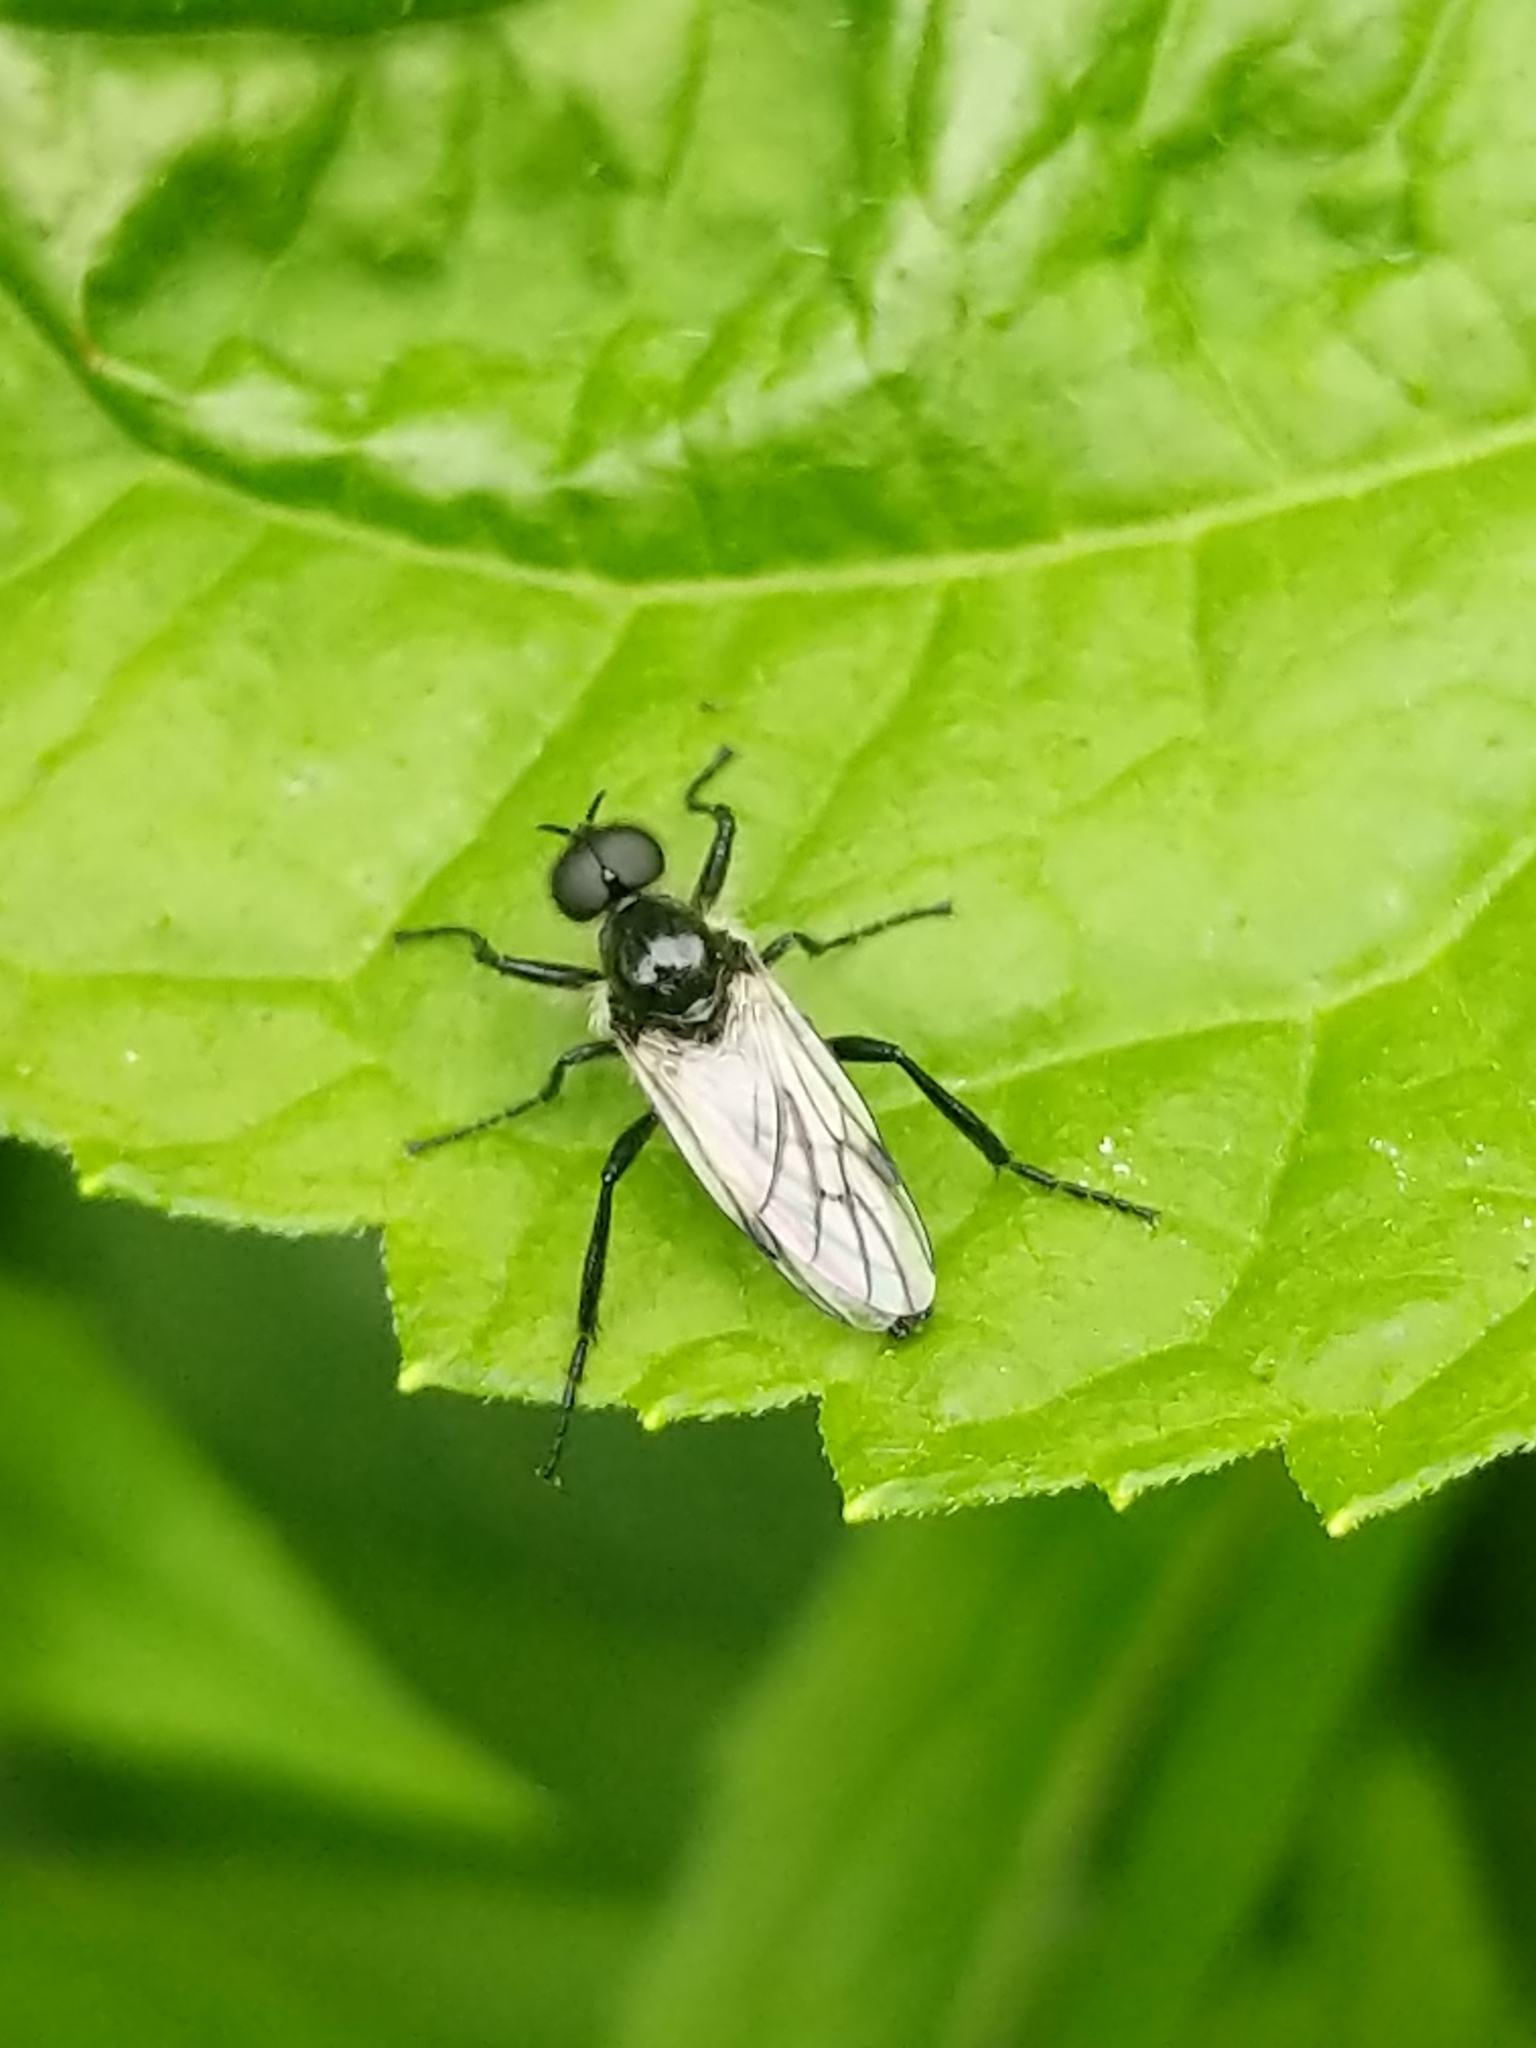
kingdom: Animalia
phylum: Arthropoda
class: Insecta
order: Diptera
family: Bibionidae
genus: Bibio
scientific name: Bibio albipennis
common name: White-winged march fly
